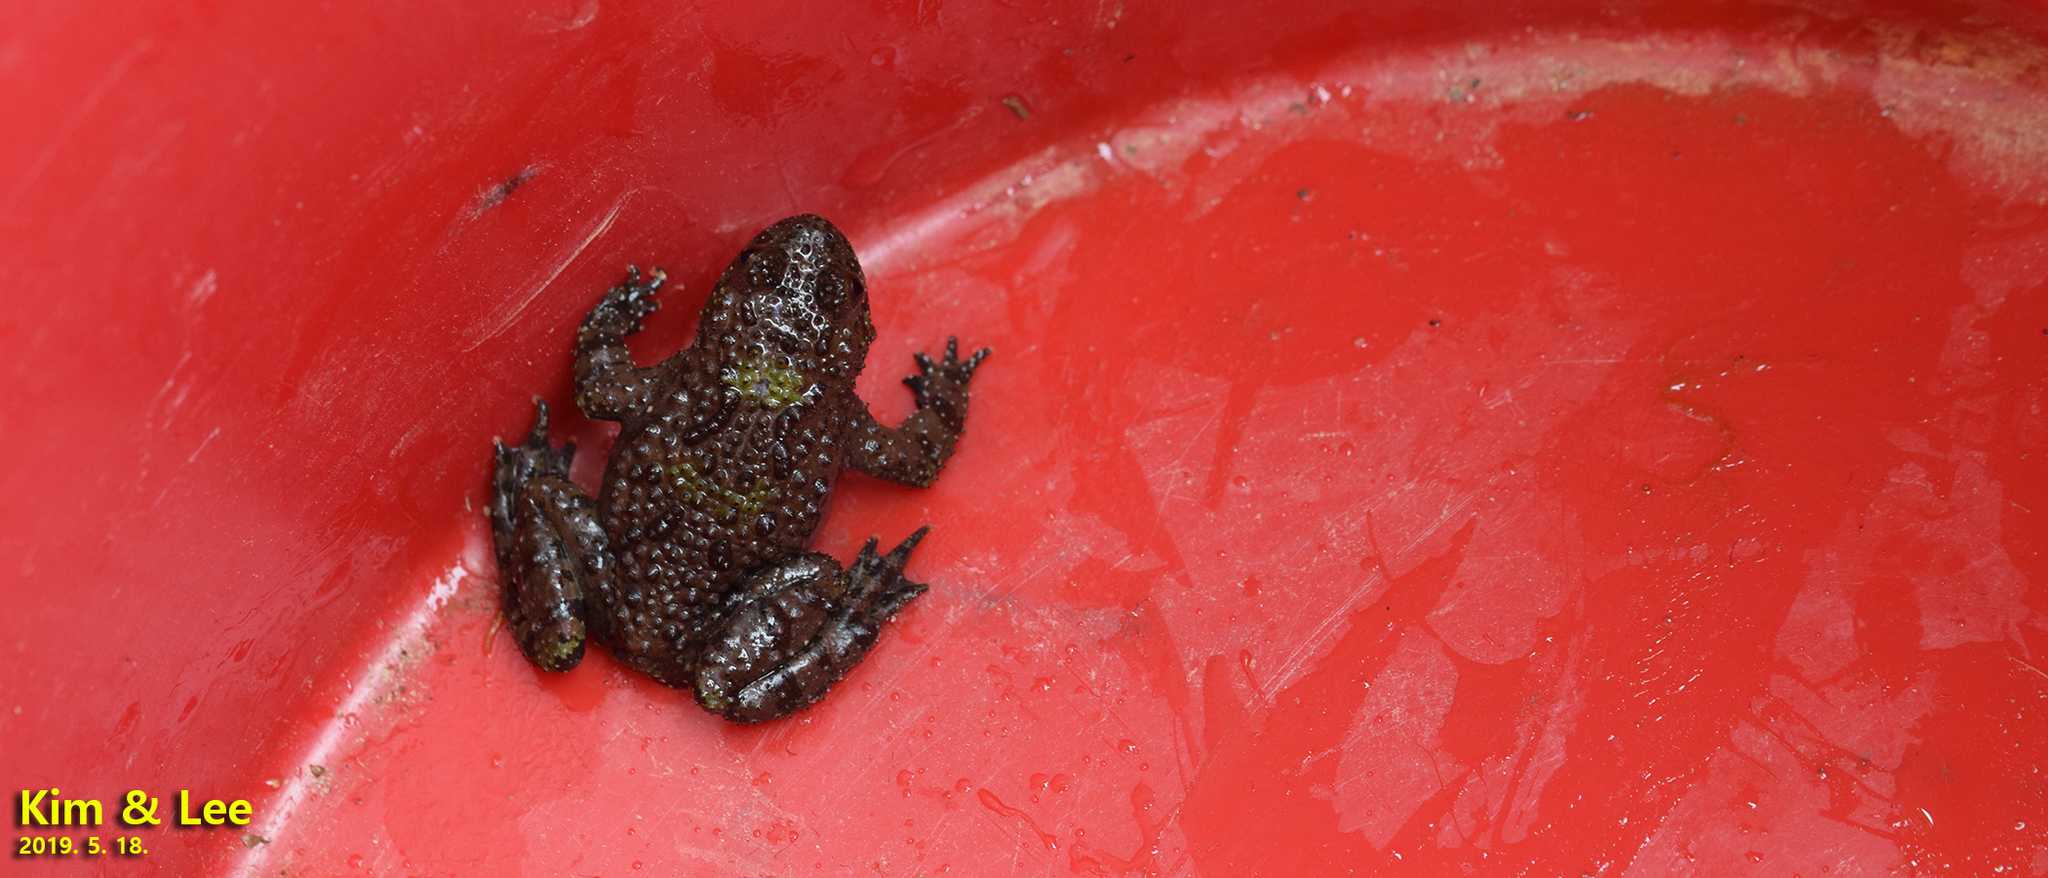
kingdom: Animalia
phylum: Chordata
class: Amphibia
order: Anura
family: Bombinatoridae
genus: Bombina
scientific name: Bombina orientalis
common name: Oriental firebelly toad
